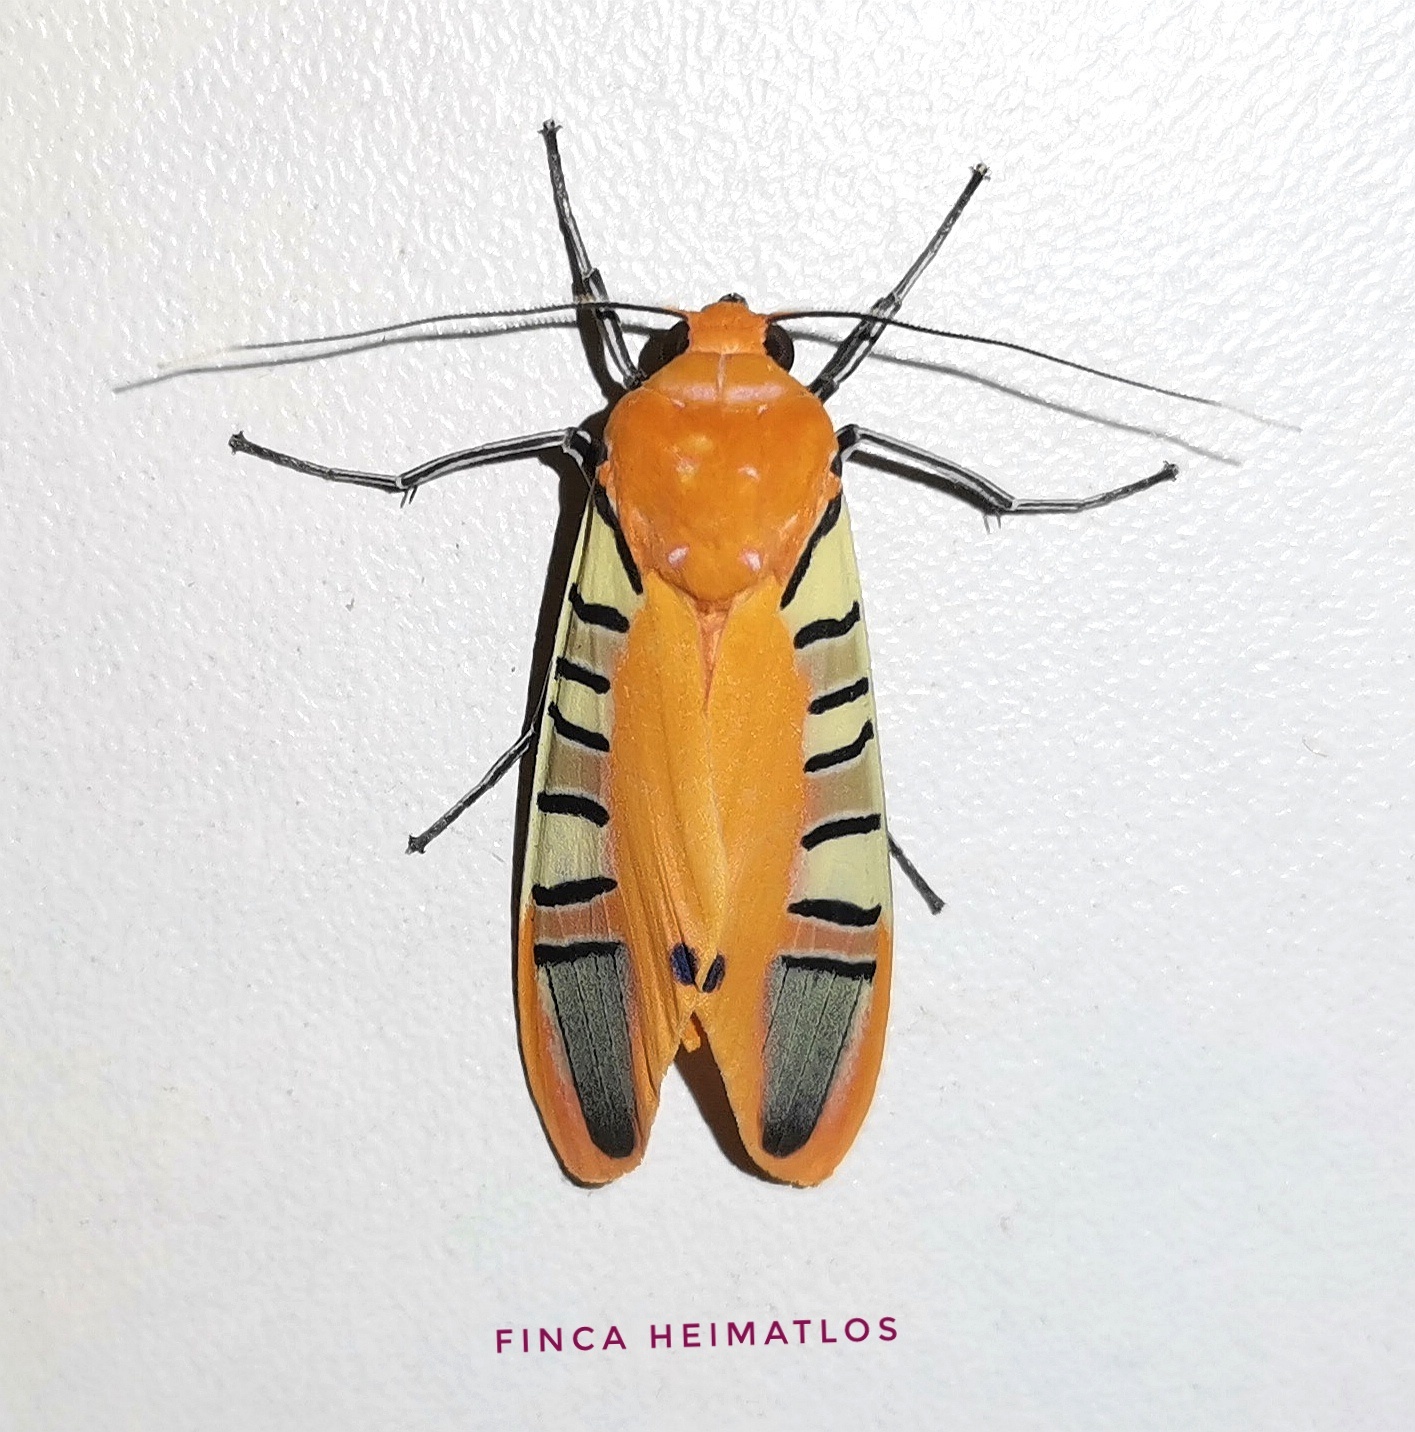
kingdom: Animalia
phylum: Arthropoda
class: Insecta
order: Lepidoptera
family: Erebidae
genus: Gorgonidia
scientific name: Gorgonidia buckleyi
